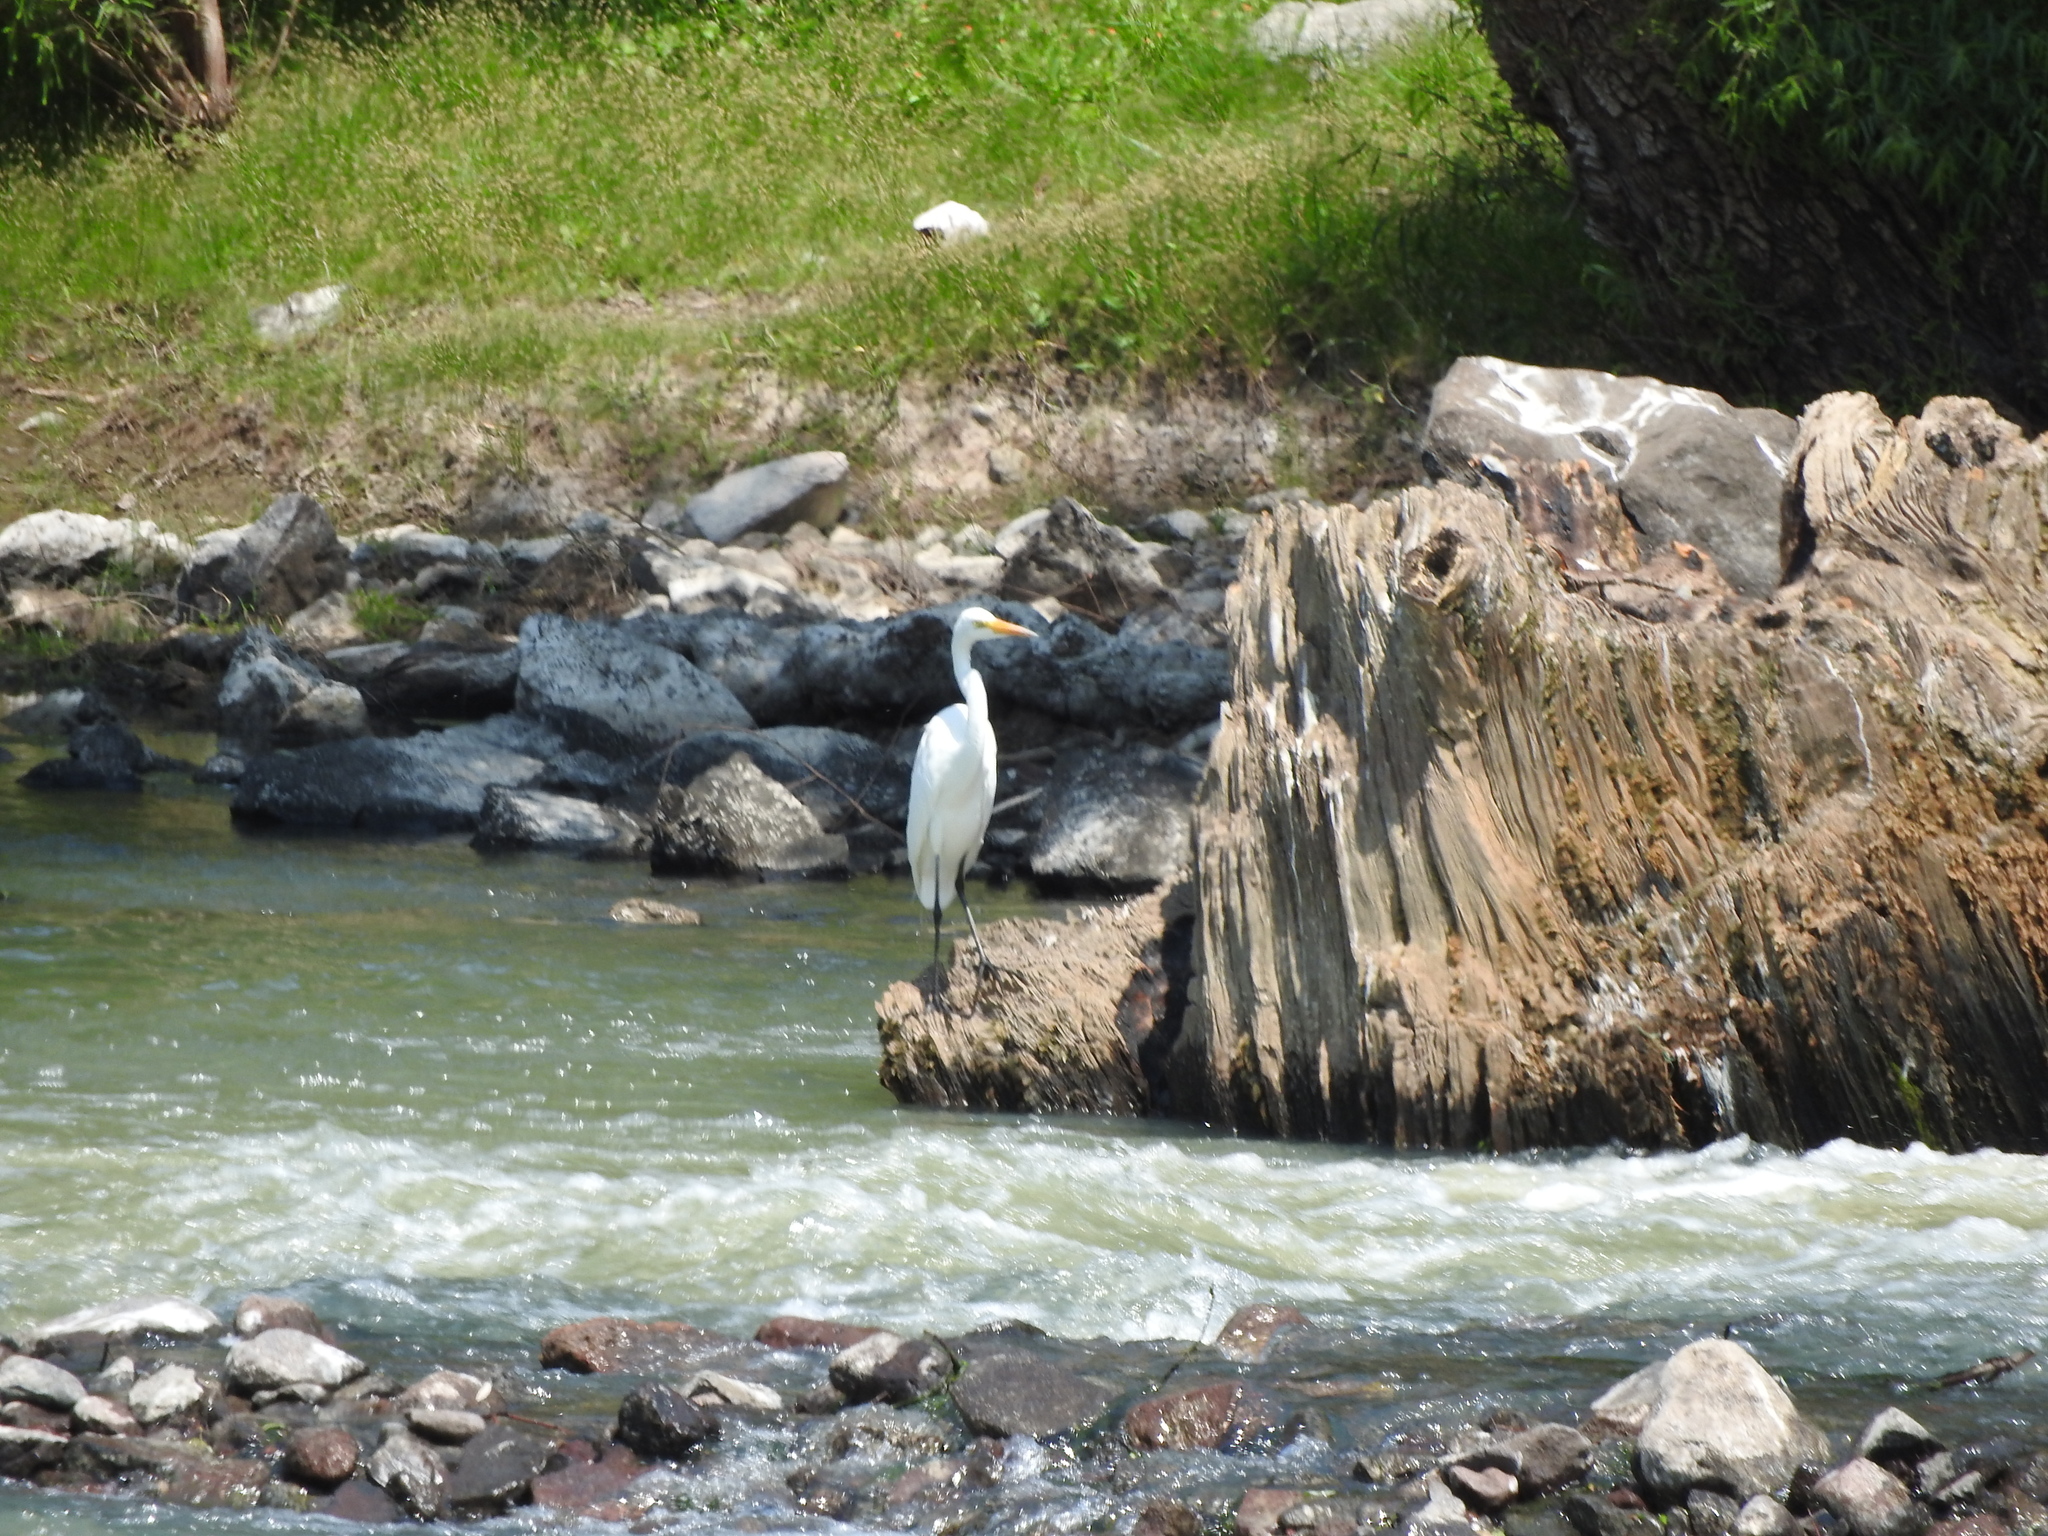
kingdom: Animalia
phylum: Chordata
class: Aves
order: Pelecaniformes
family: Ardeidae
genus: Ardea
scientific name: Ardea alba
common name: Great egret
